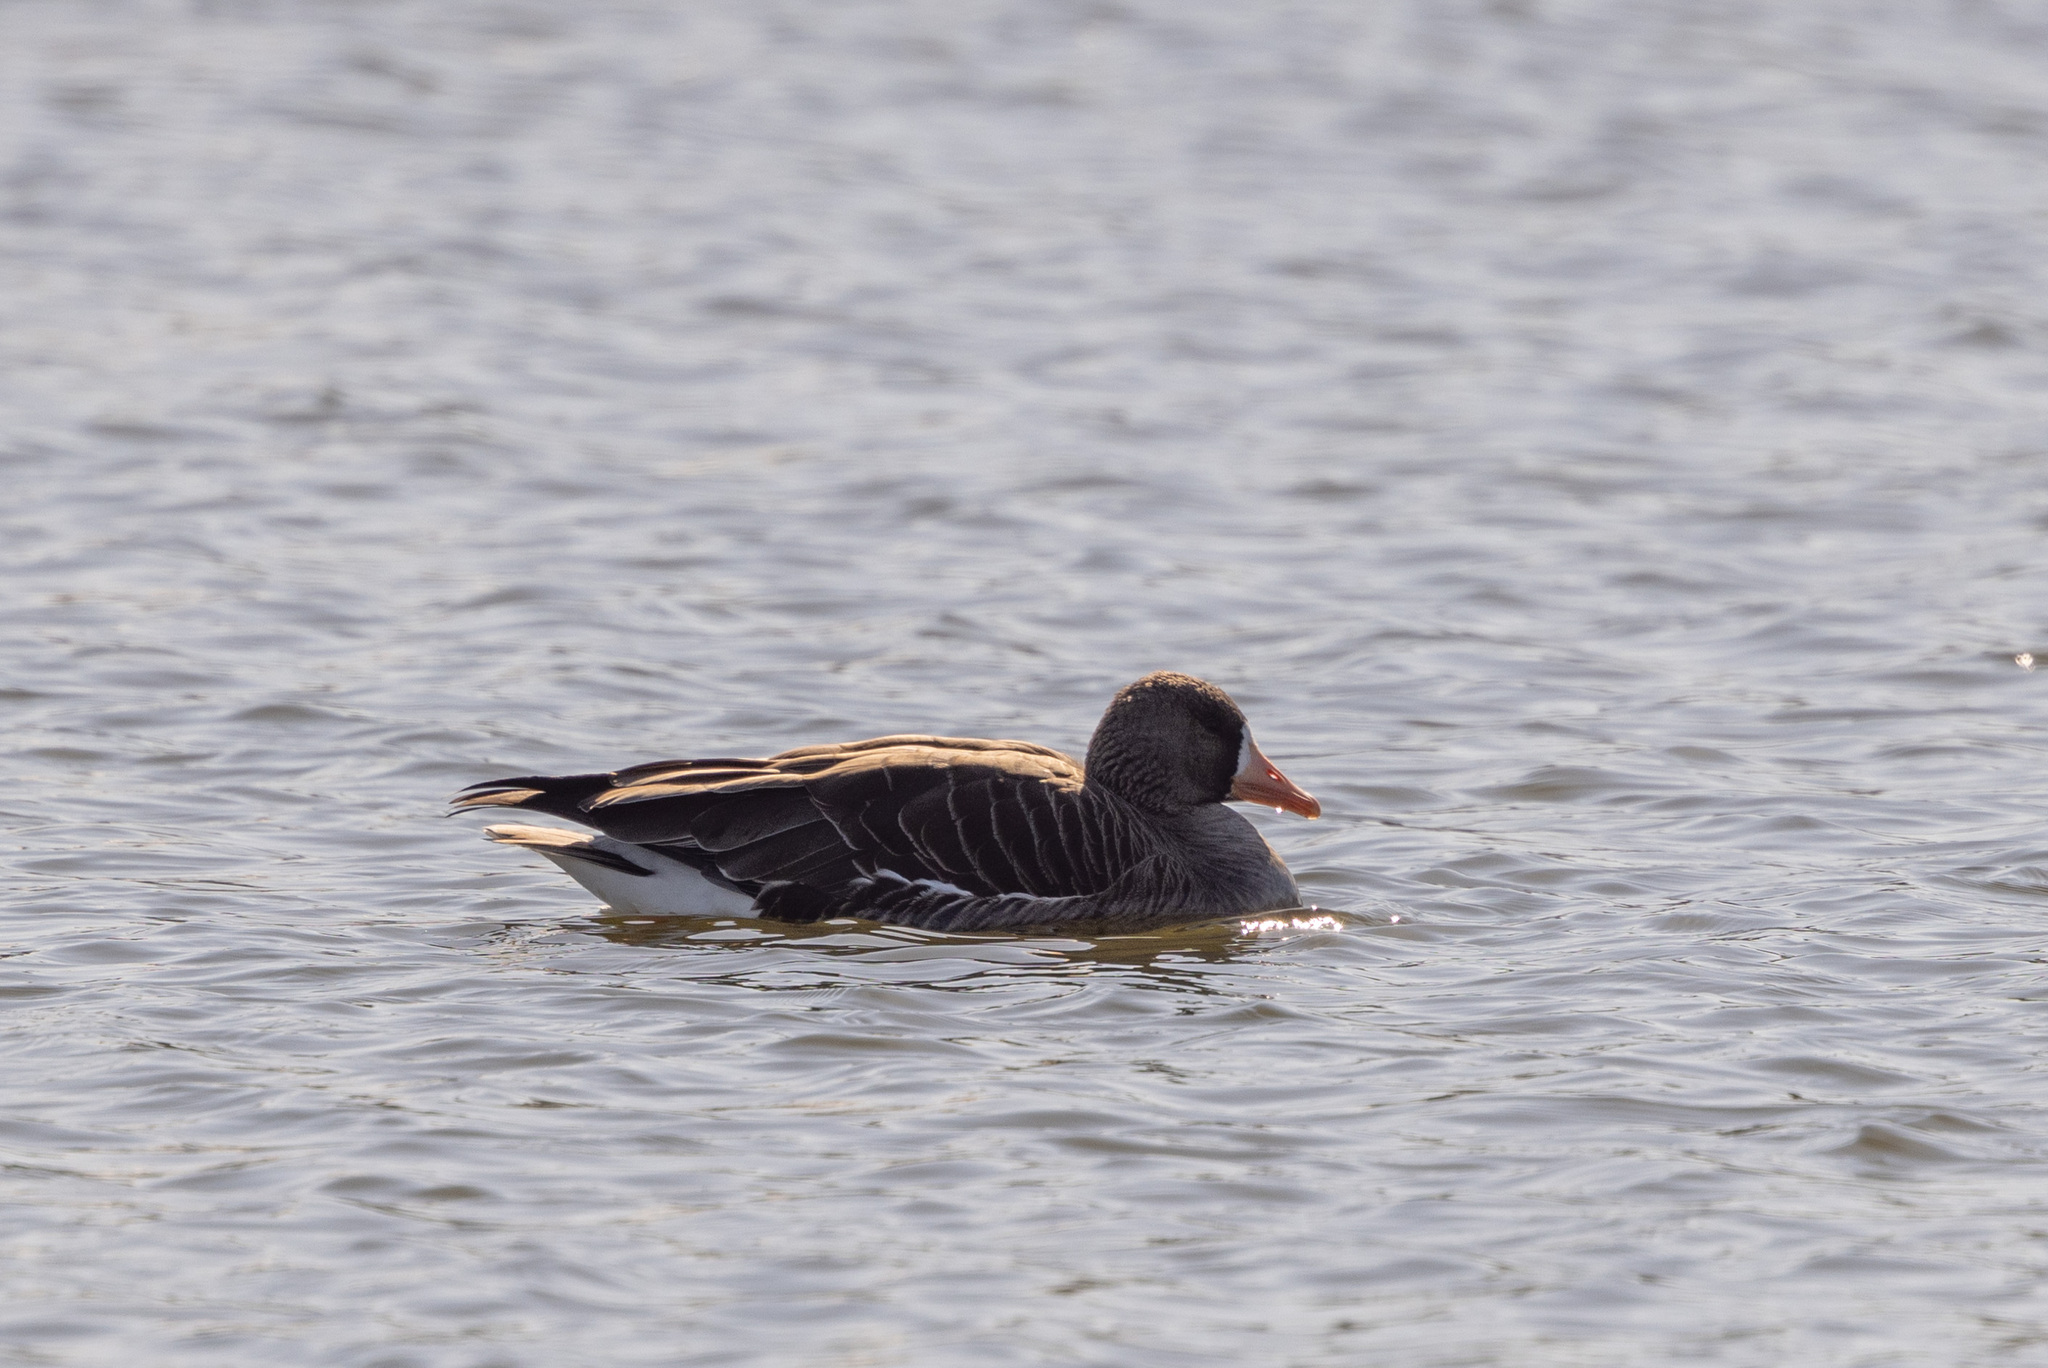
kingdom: Animalia
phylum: Chordata
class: Aves
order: Anseriformes
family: Anatidae
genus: Anser
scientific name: Anser albifrons
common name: Greater white-fronted goose
